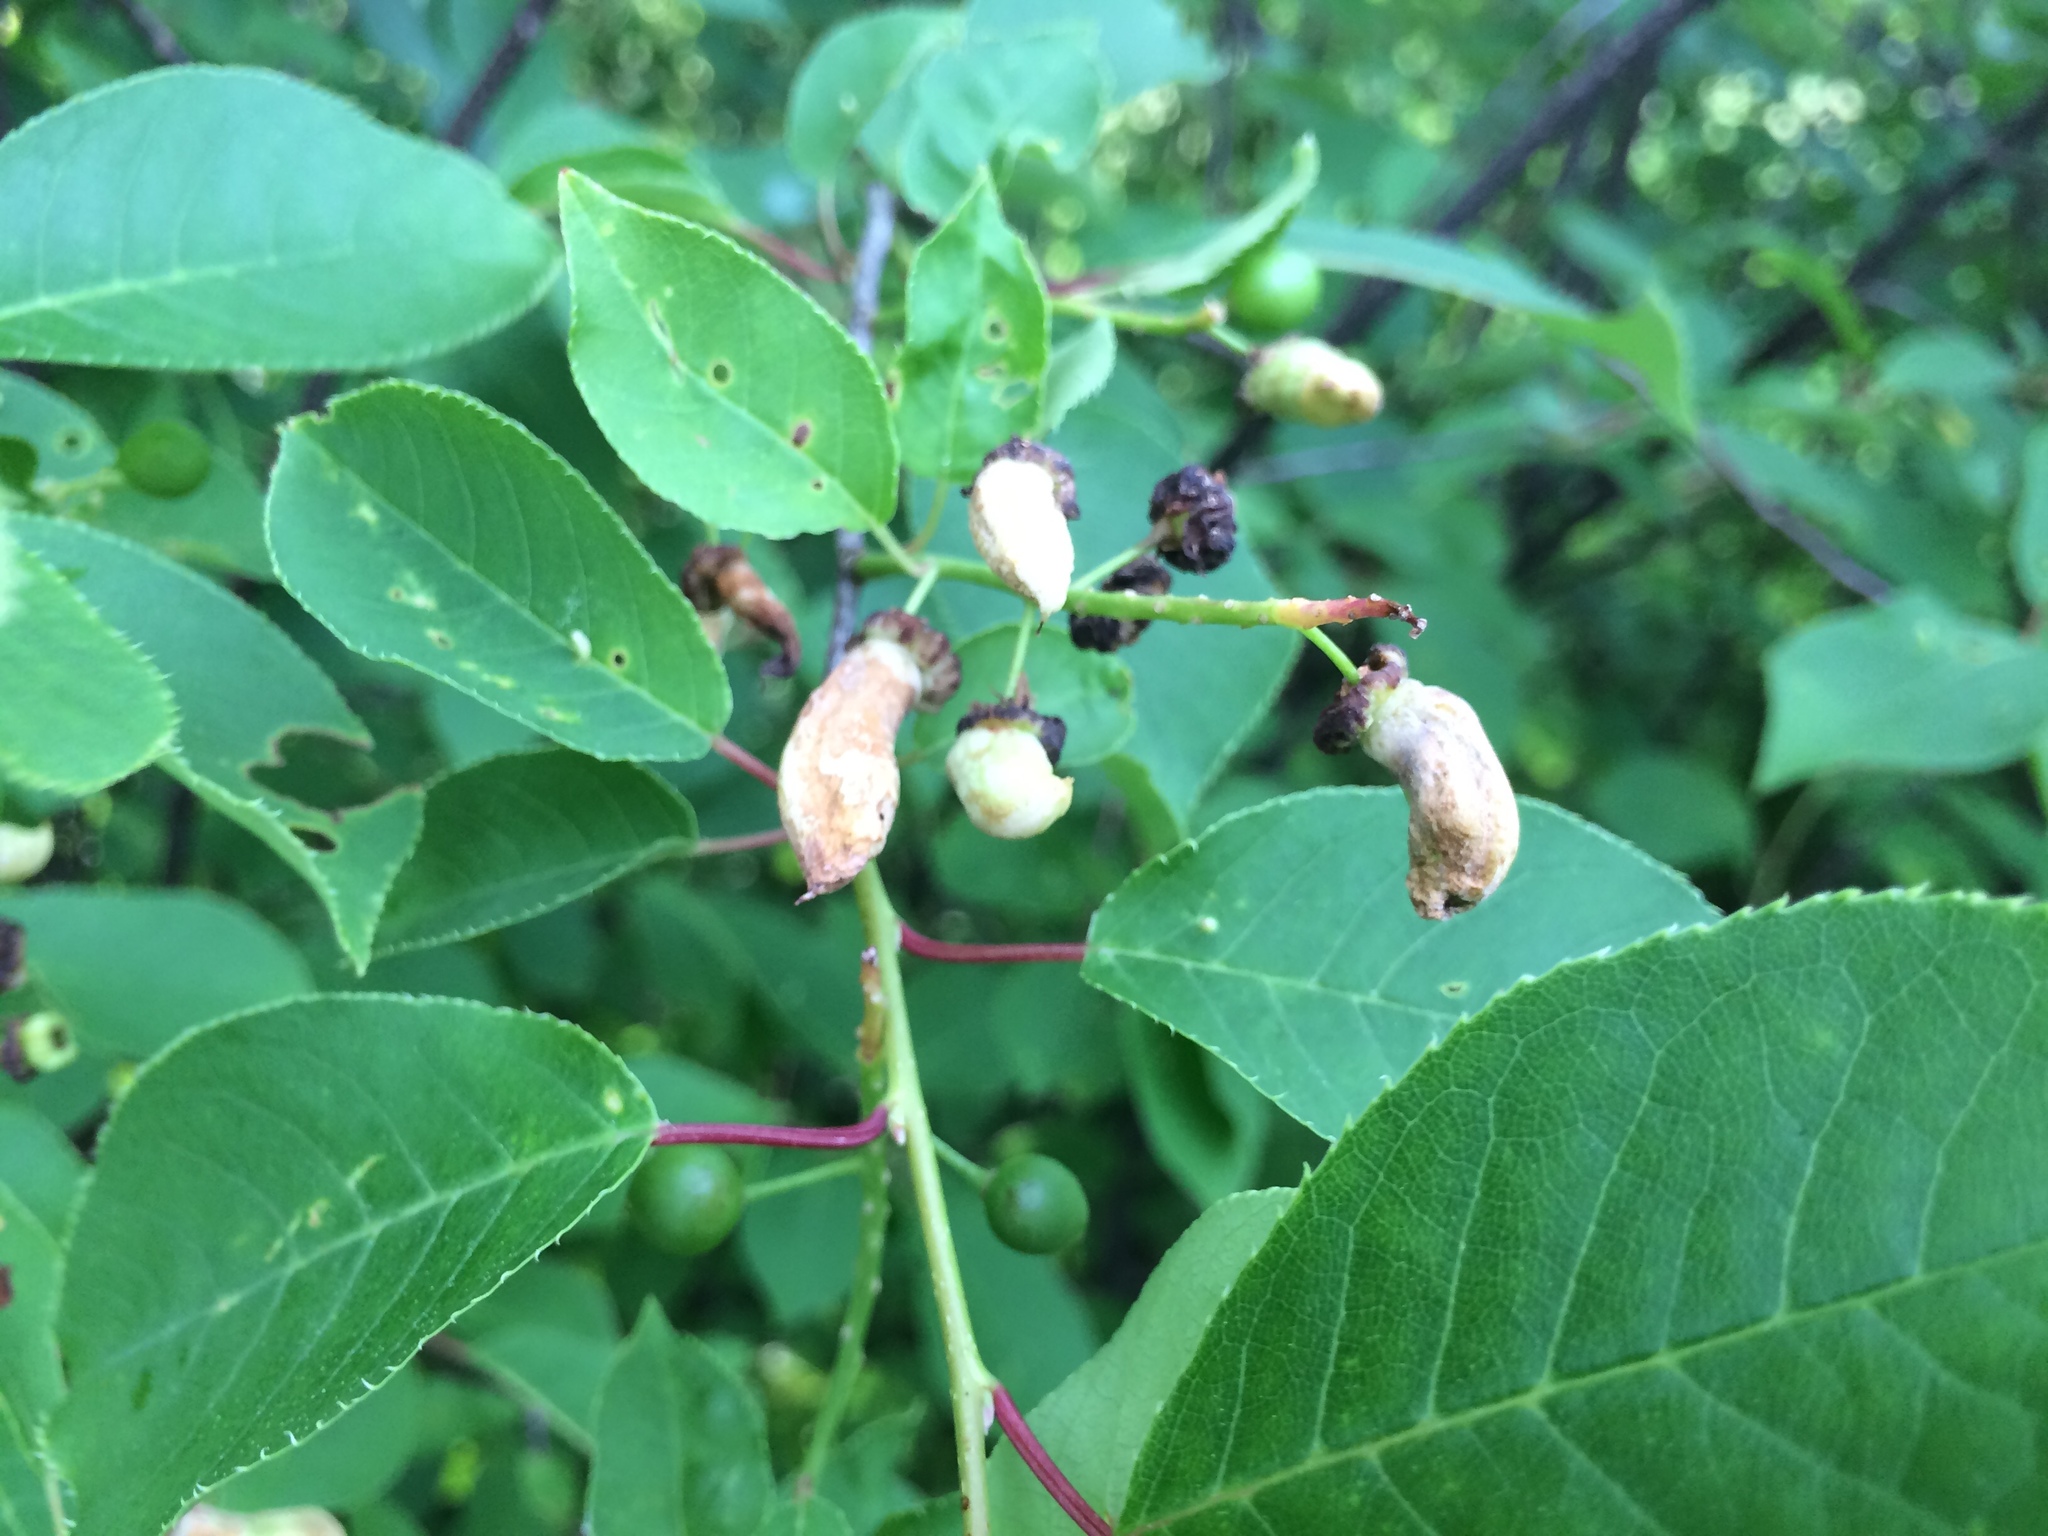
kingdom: Plantae
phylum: Tracheophyta
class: Magnoliopsida
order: Rosales
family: Rosaceae
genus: Prunus
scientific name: Prunus virginiana
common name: Chokecherry
